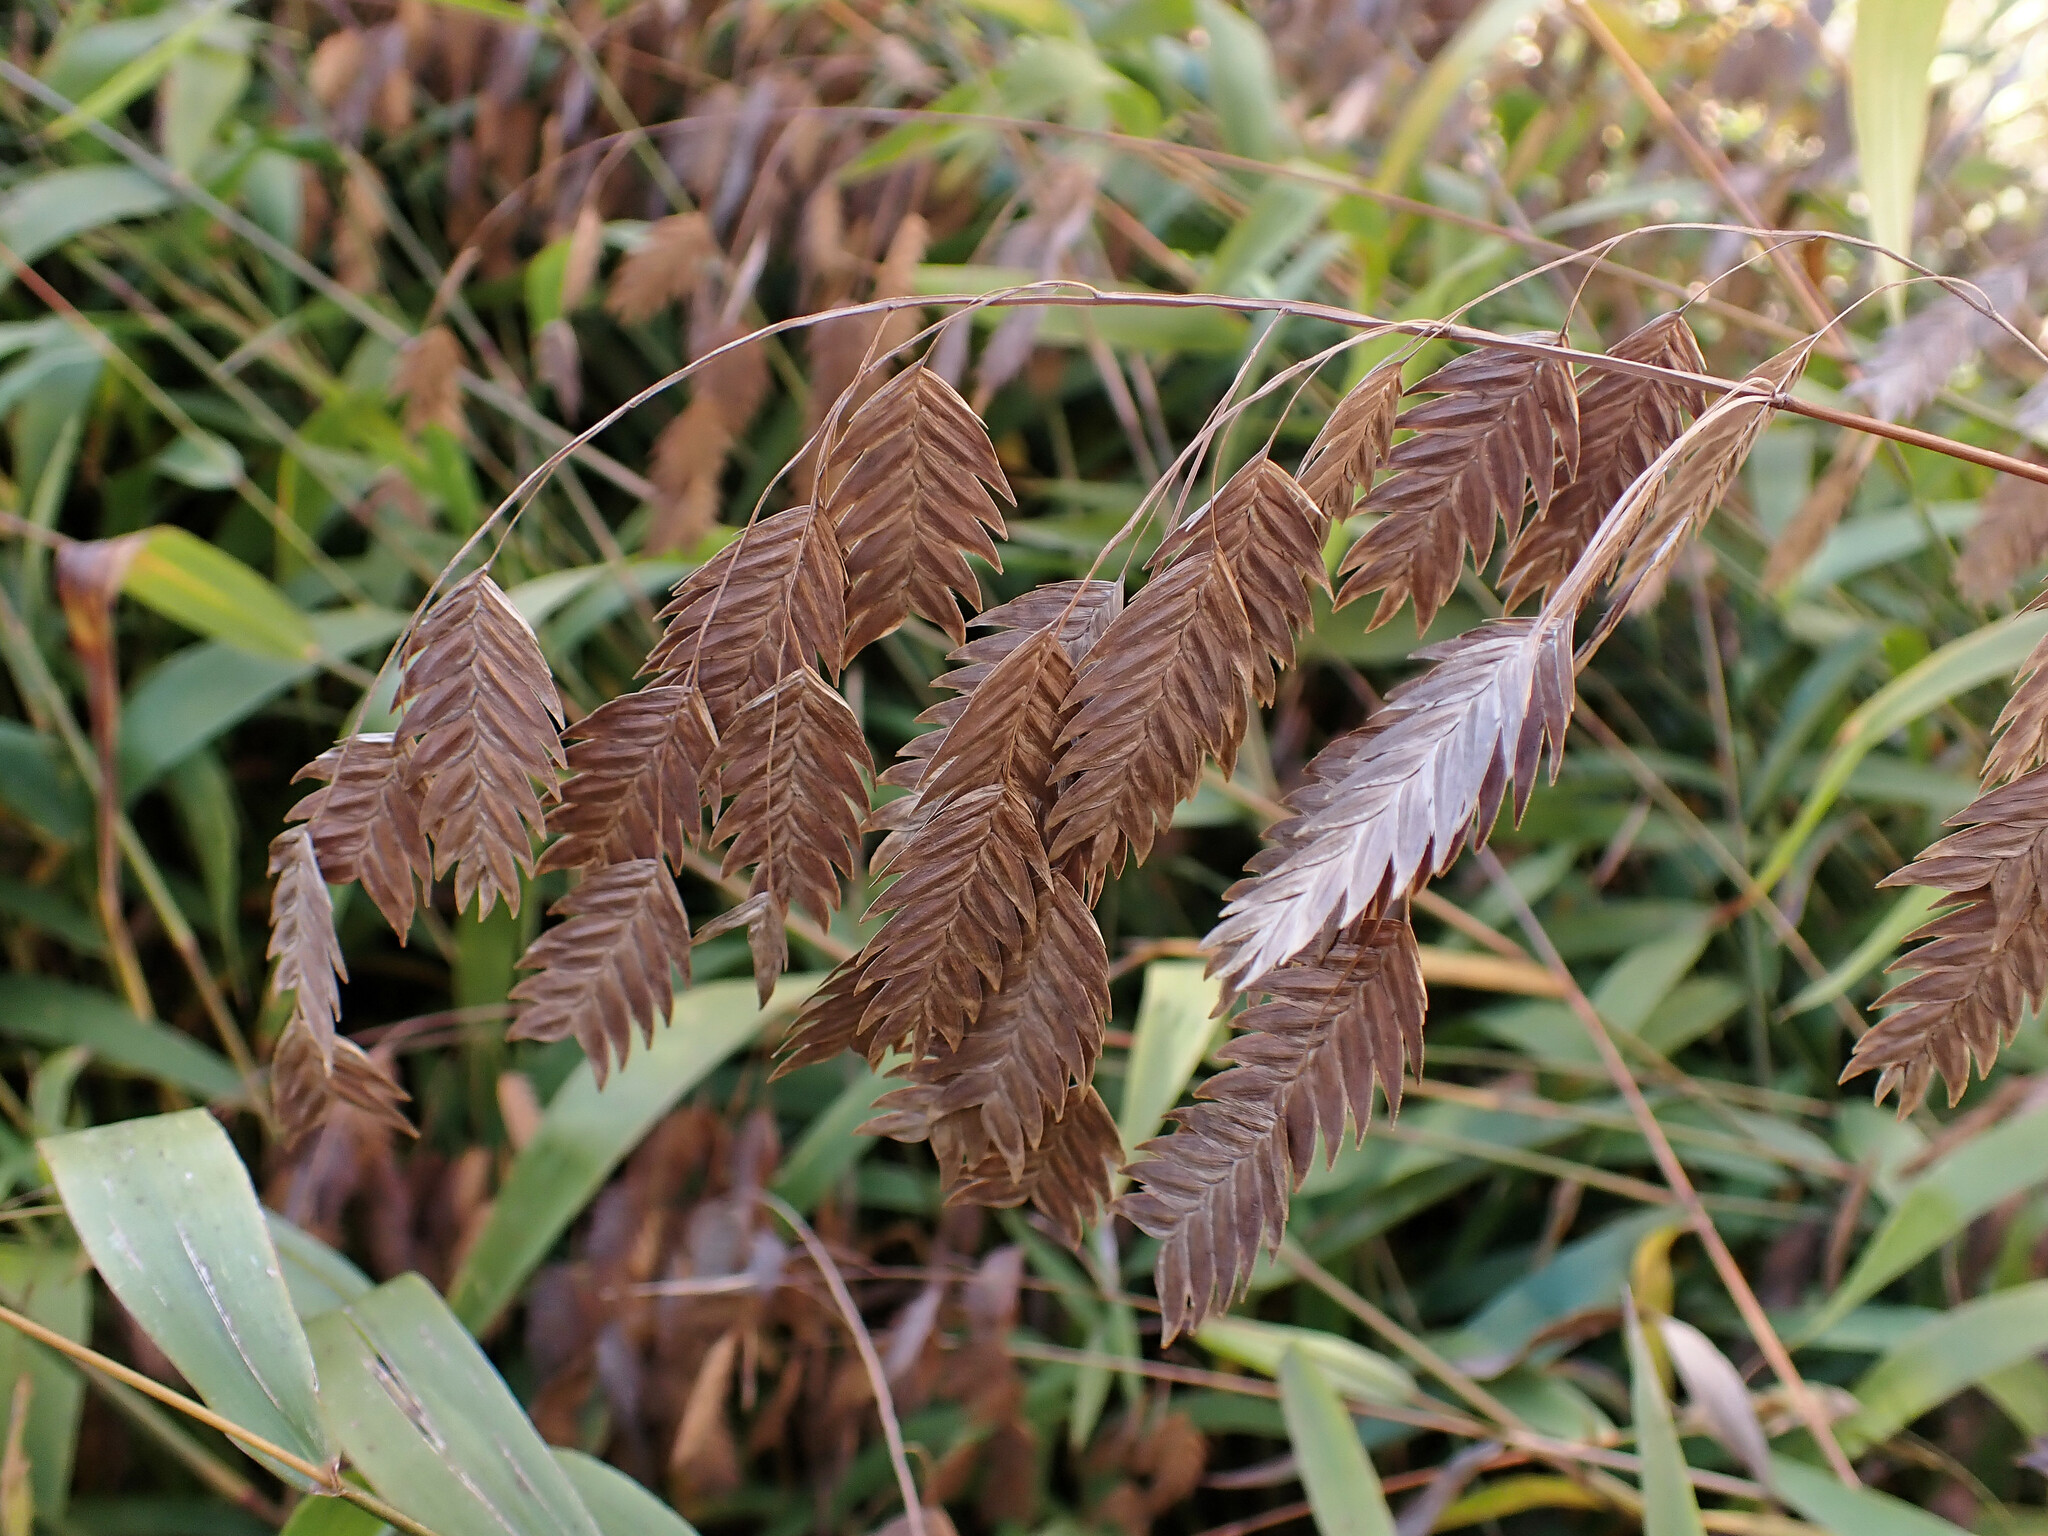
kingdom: Plantae
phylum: Tracheophyta
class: Liliopsida
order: Poales
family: Poaceae
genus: Chasmanthium
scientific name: Chasmanthium latifolium
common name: Broad-leaved chasmanthium
